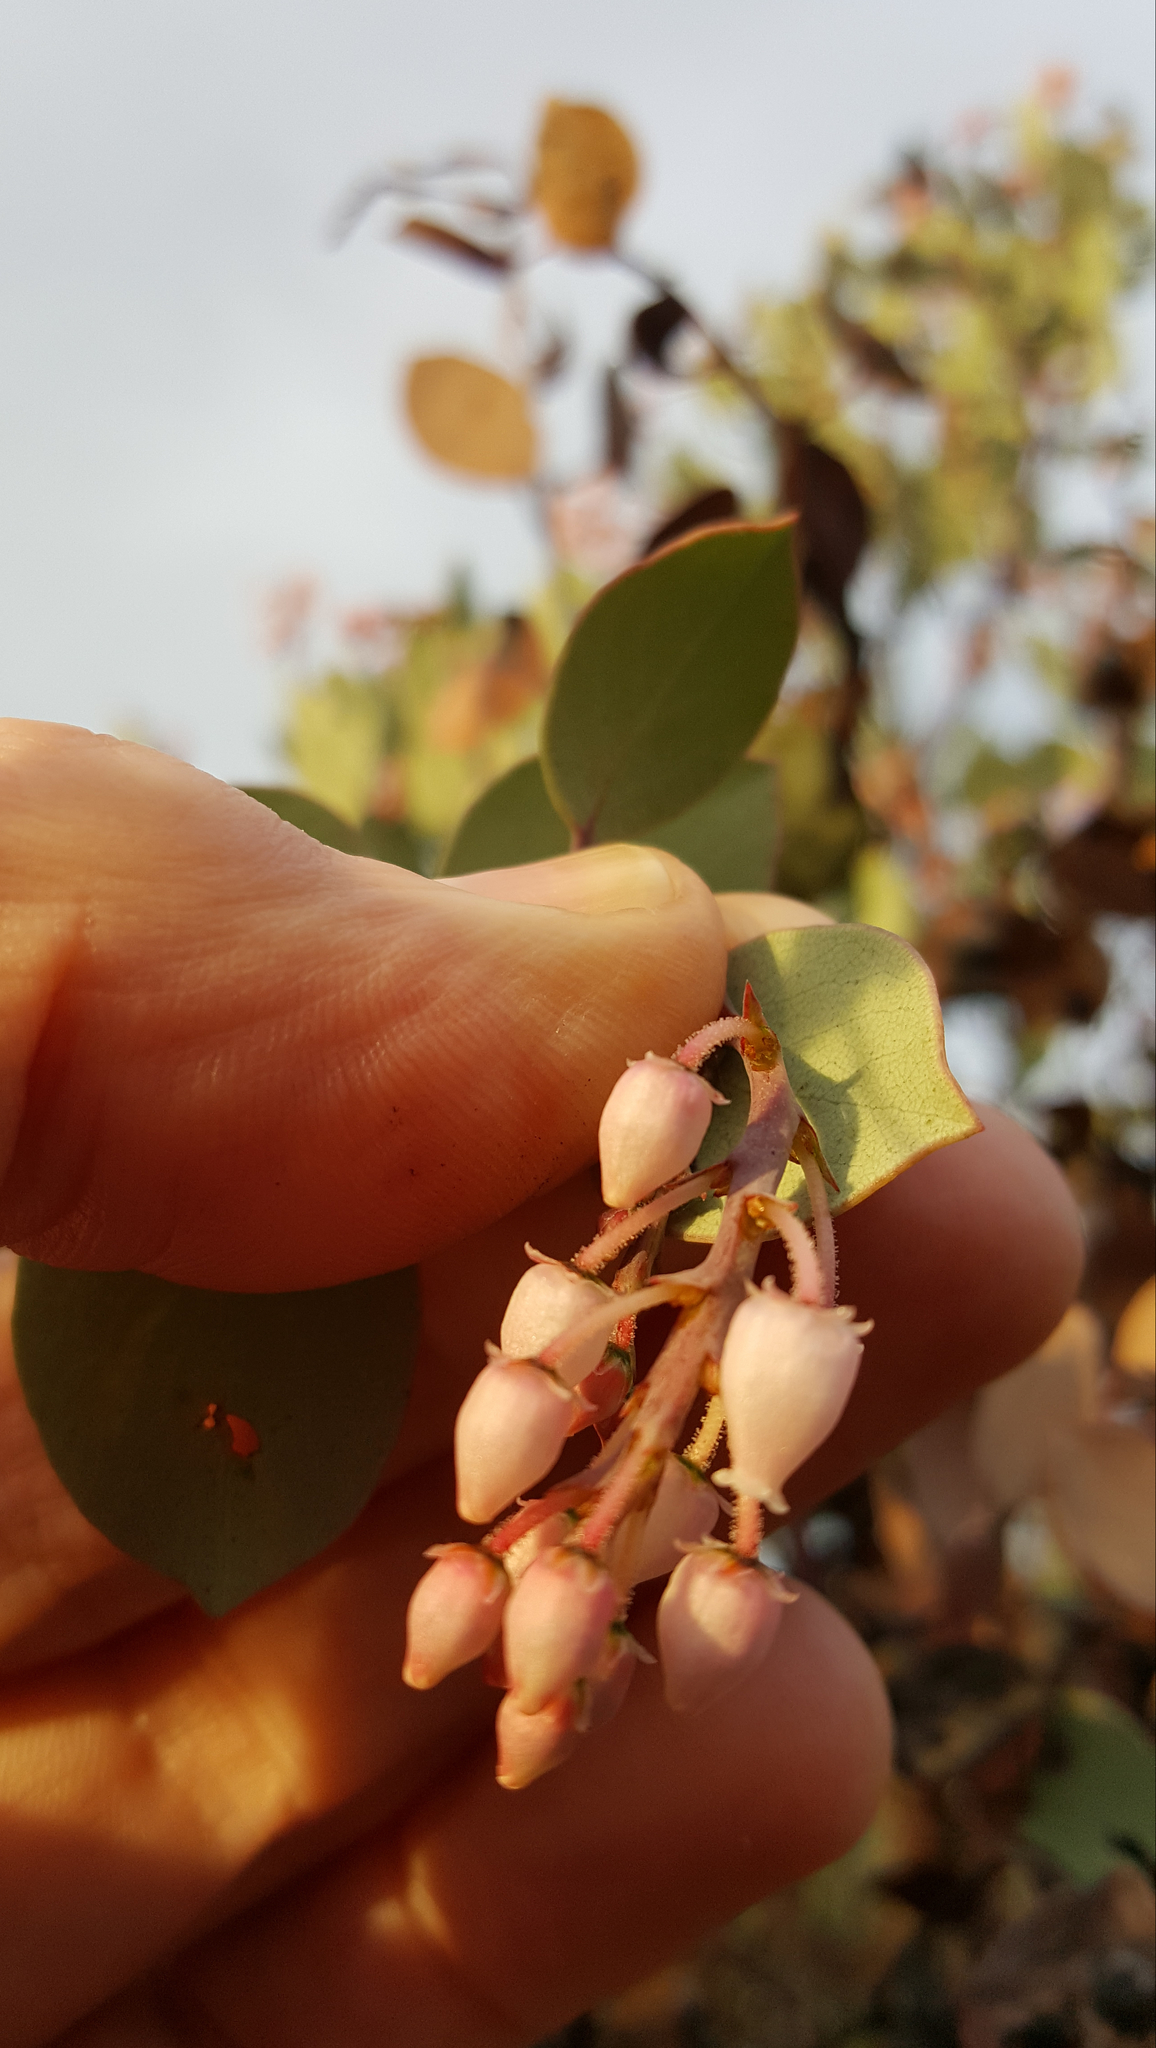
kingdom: Plantae
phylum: Tracheophyta
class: Magnoliopsida
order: Ericales
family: Ericaceae
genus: Arctostaphylos
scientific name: Arctostaphylos viscida
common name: White-leaf manzanita
